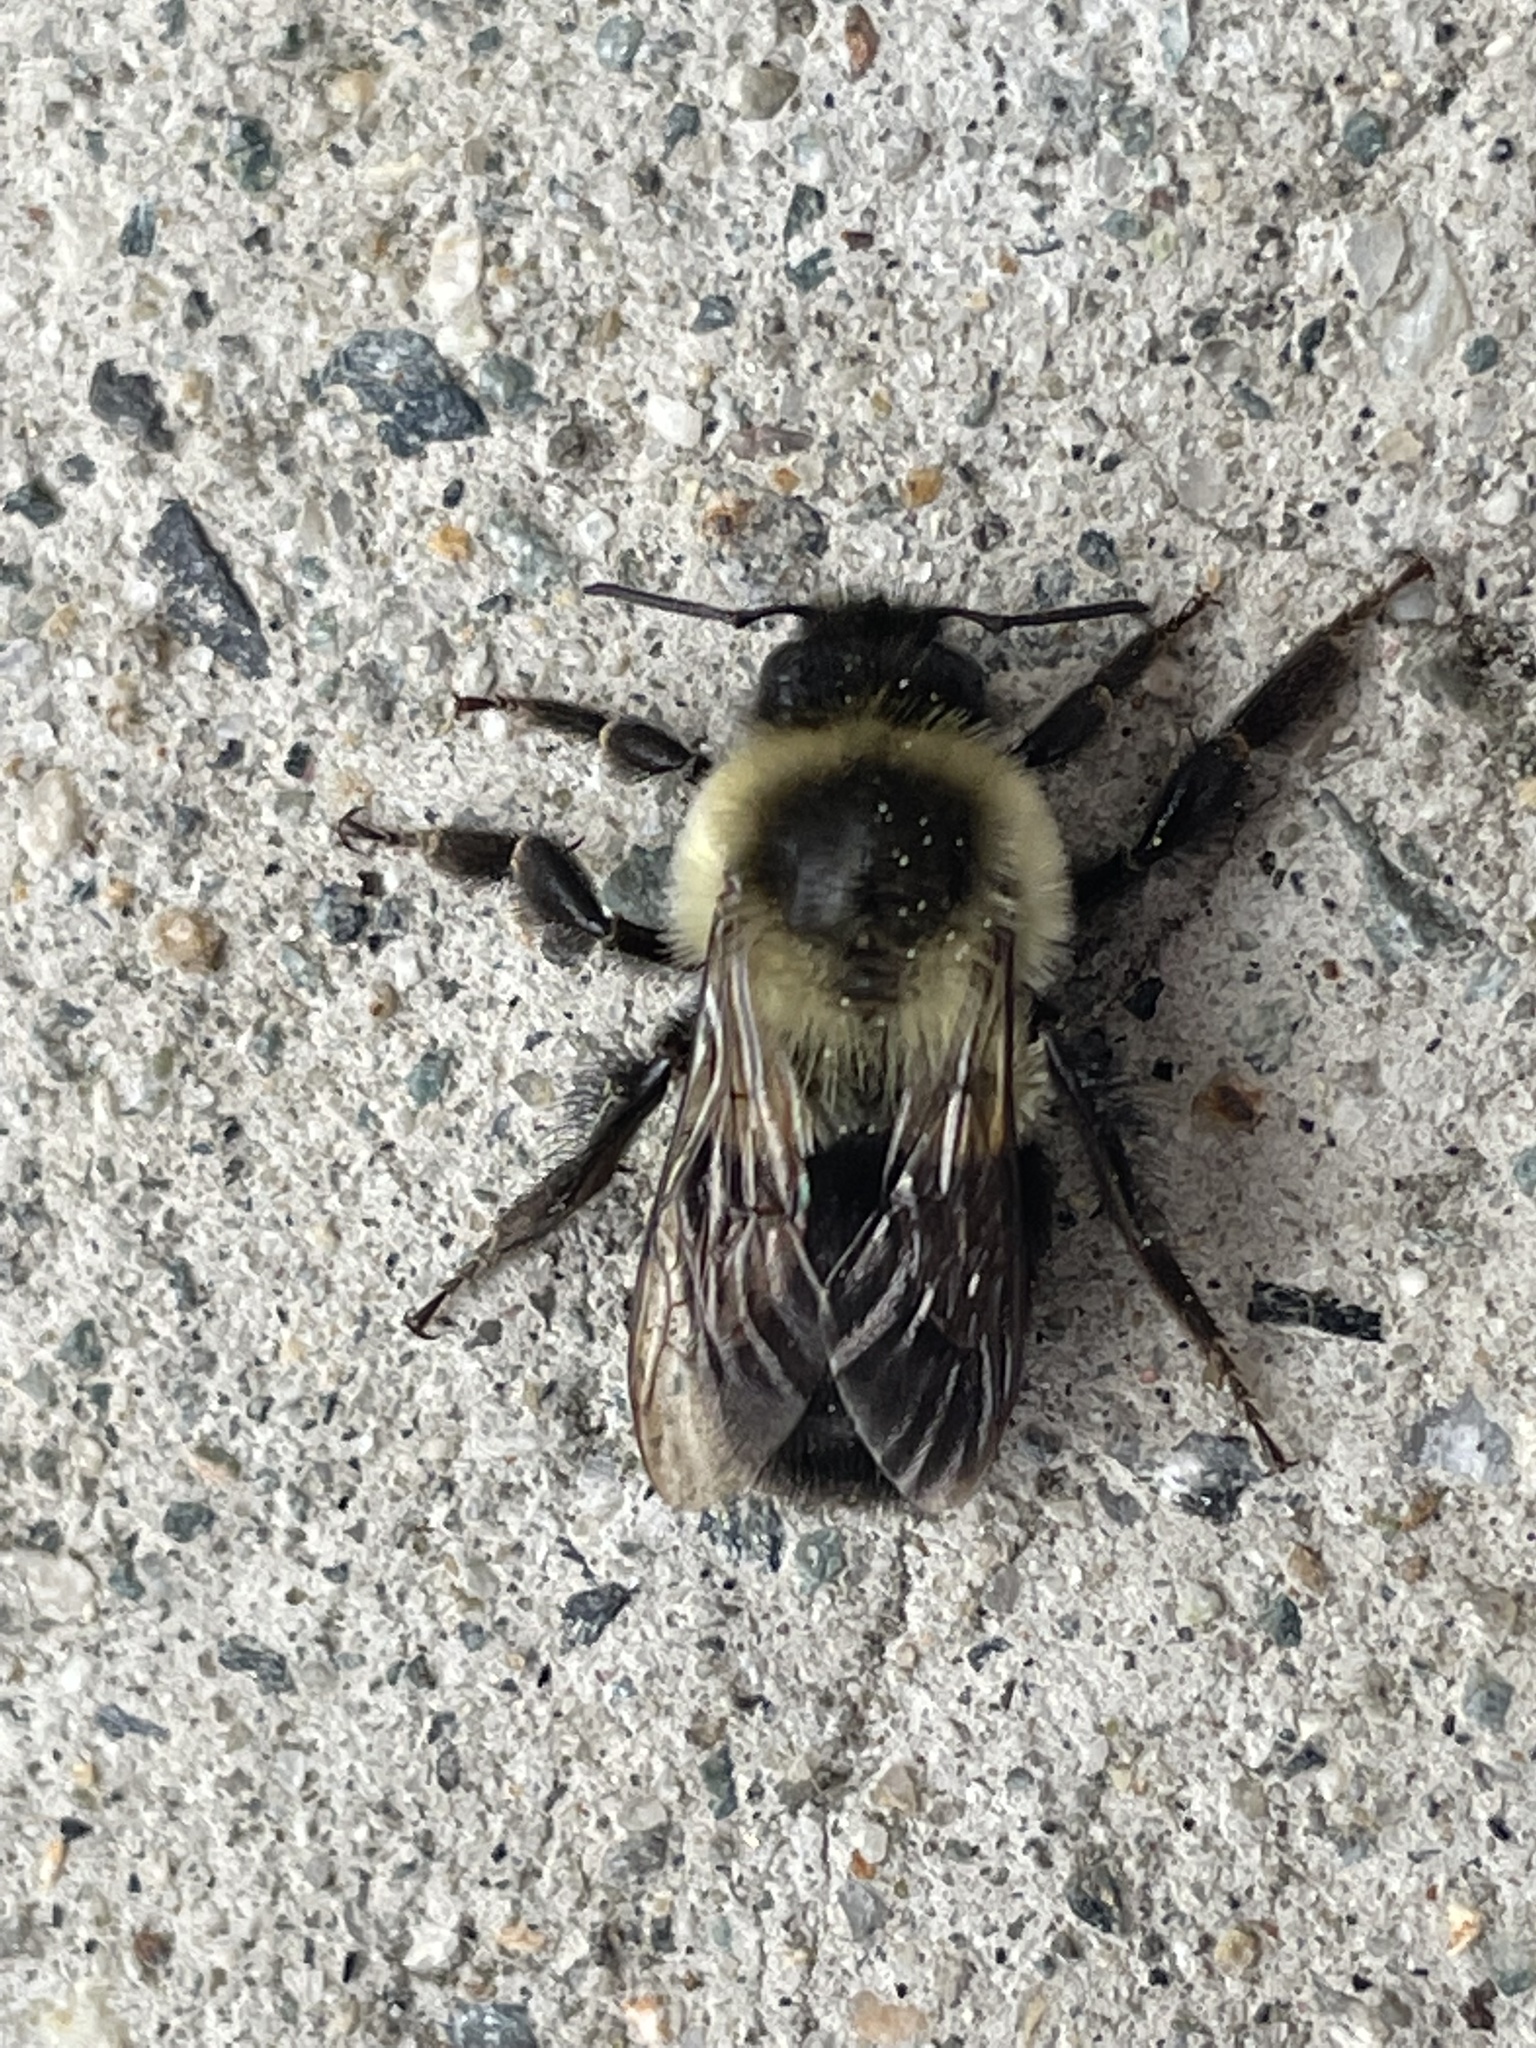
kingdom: Animalia
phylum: Arthropoda
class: Insecta
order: Hymenoptera
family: Apidae
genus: Bombus
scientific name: Bombus impatiens
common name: Common eastern bumble bee
